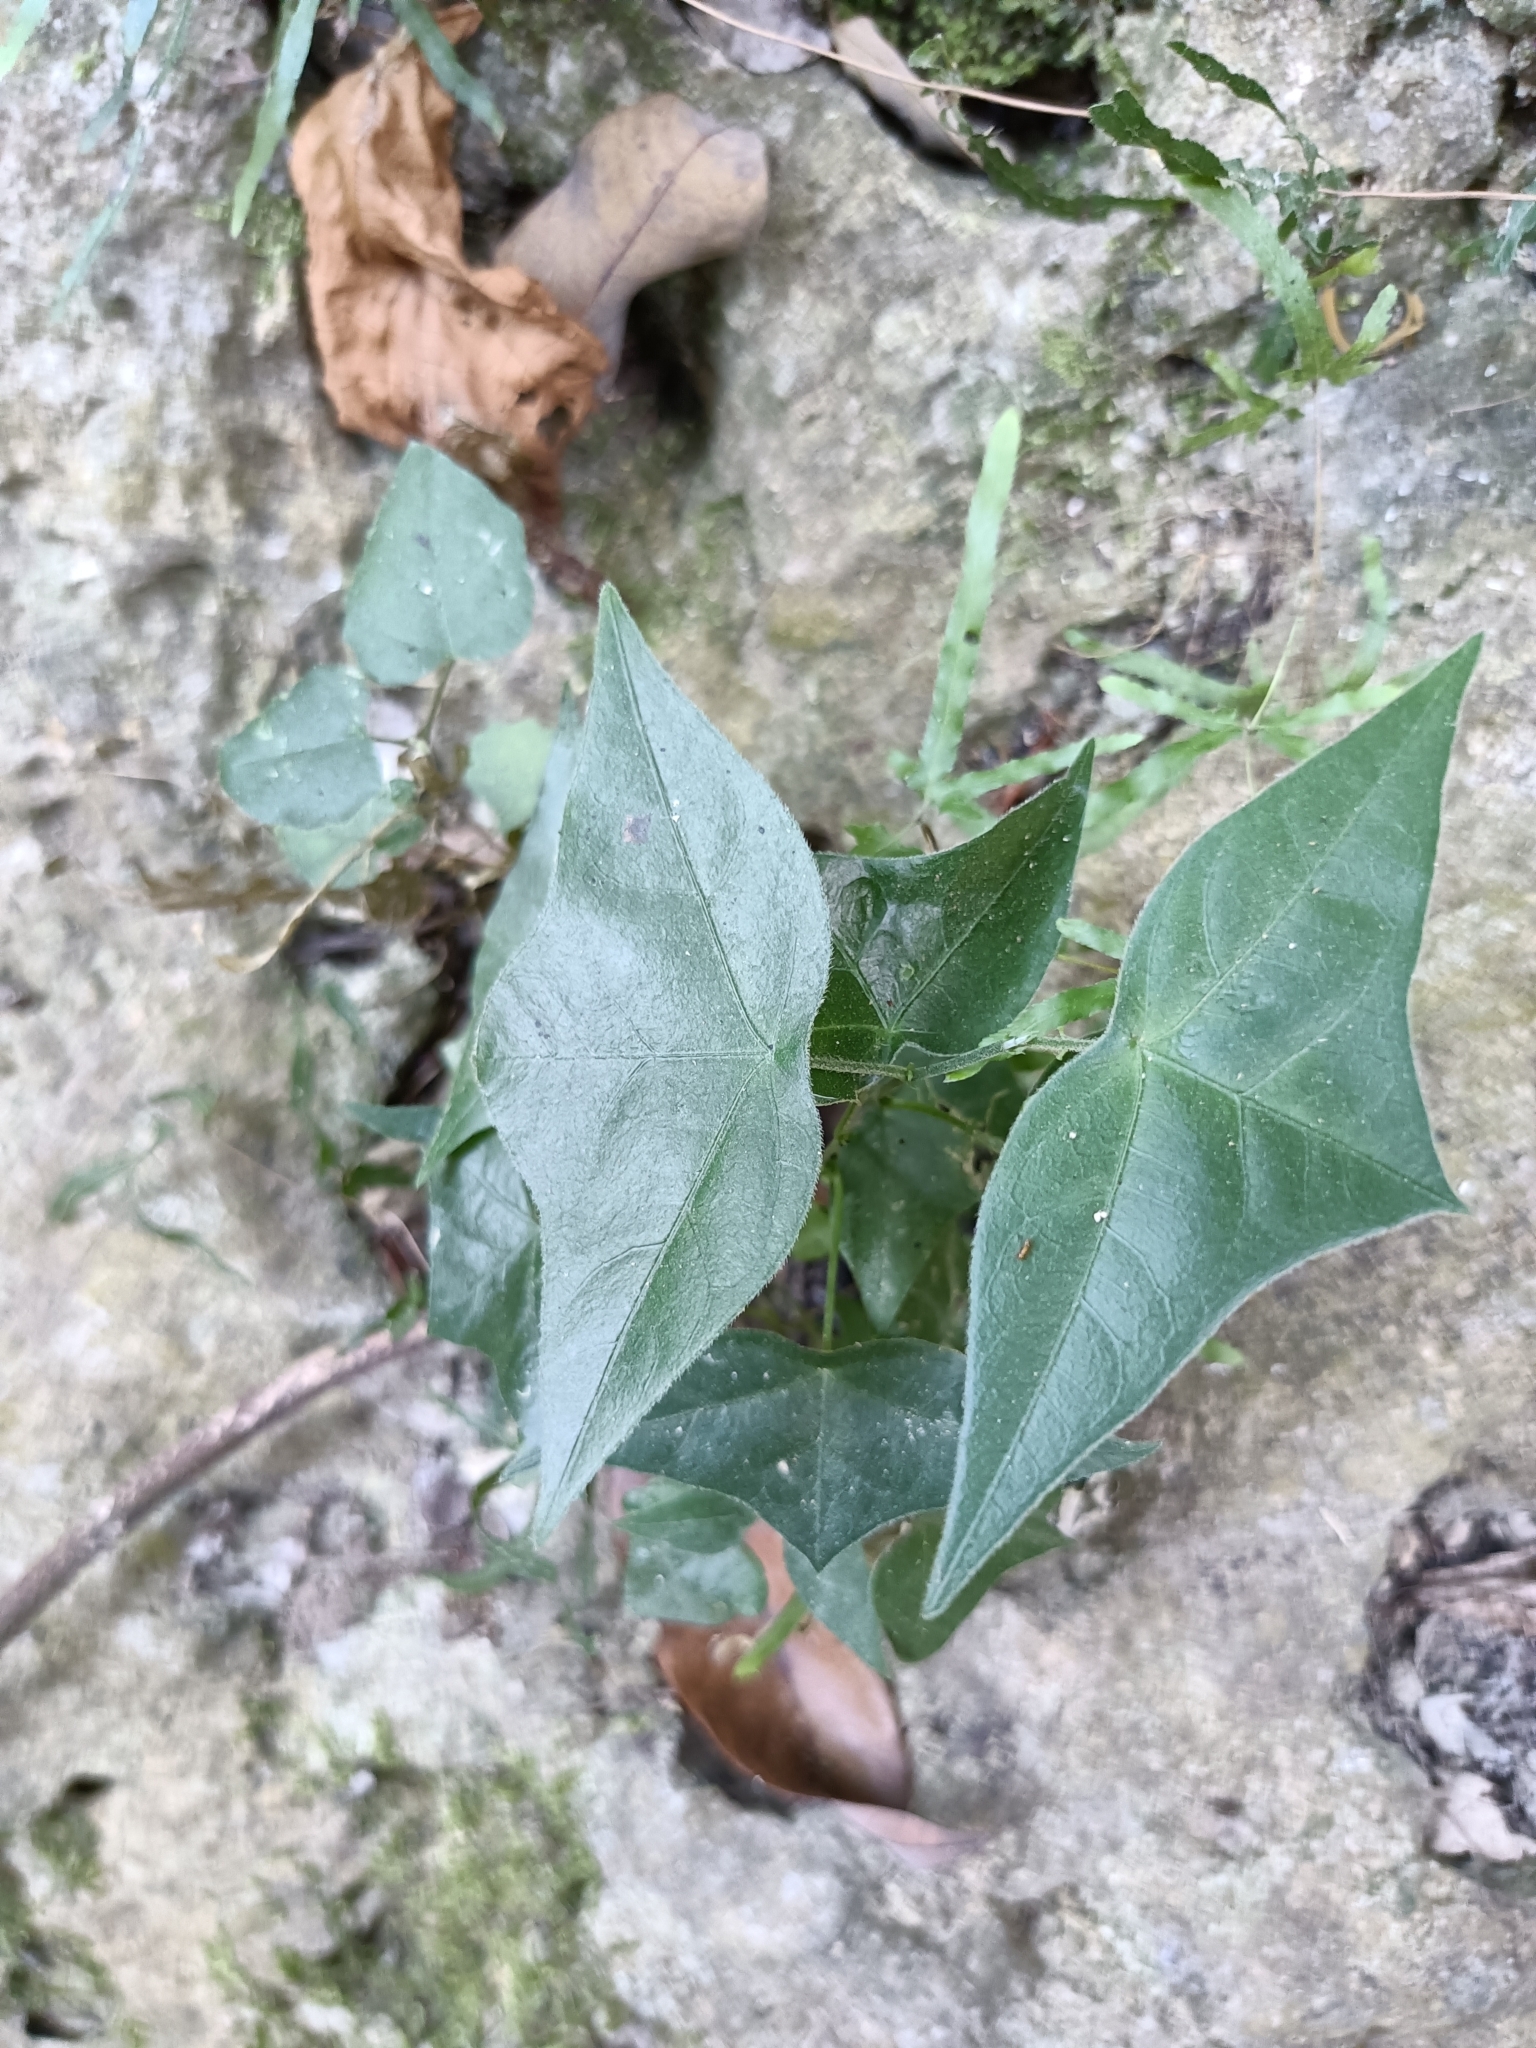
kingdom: Plantae
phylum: Tracheophyta
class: Magnoliopsida
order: Malpighiales
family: Passifloraceae
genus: Passiflora
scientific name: Passiflora suberosa
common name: Wild passionfruit
